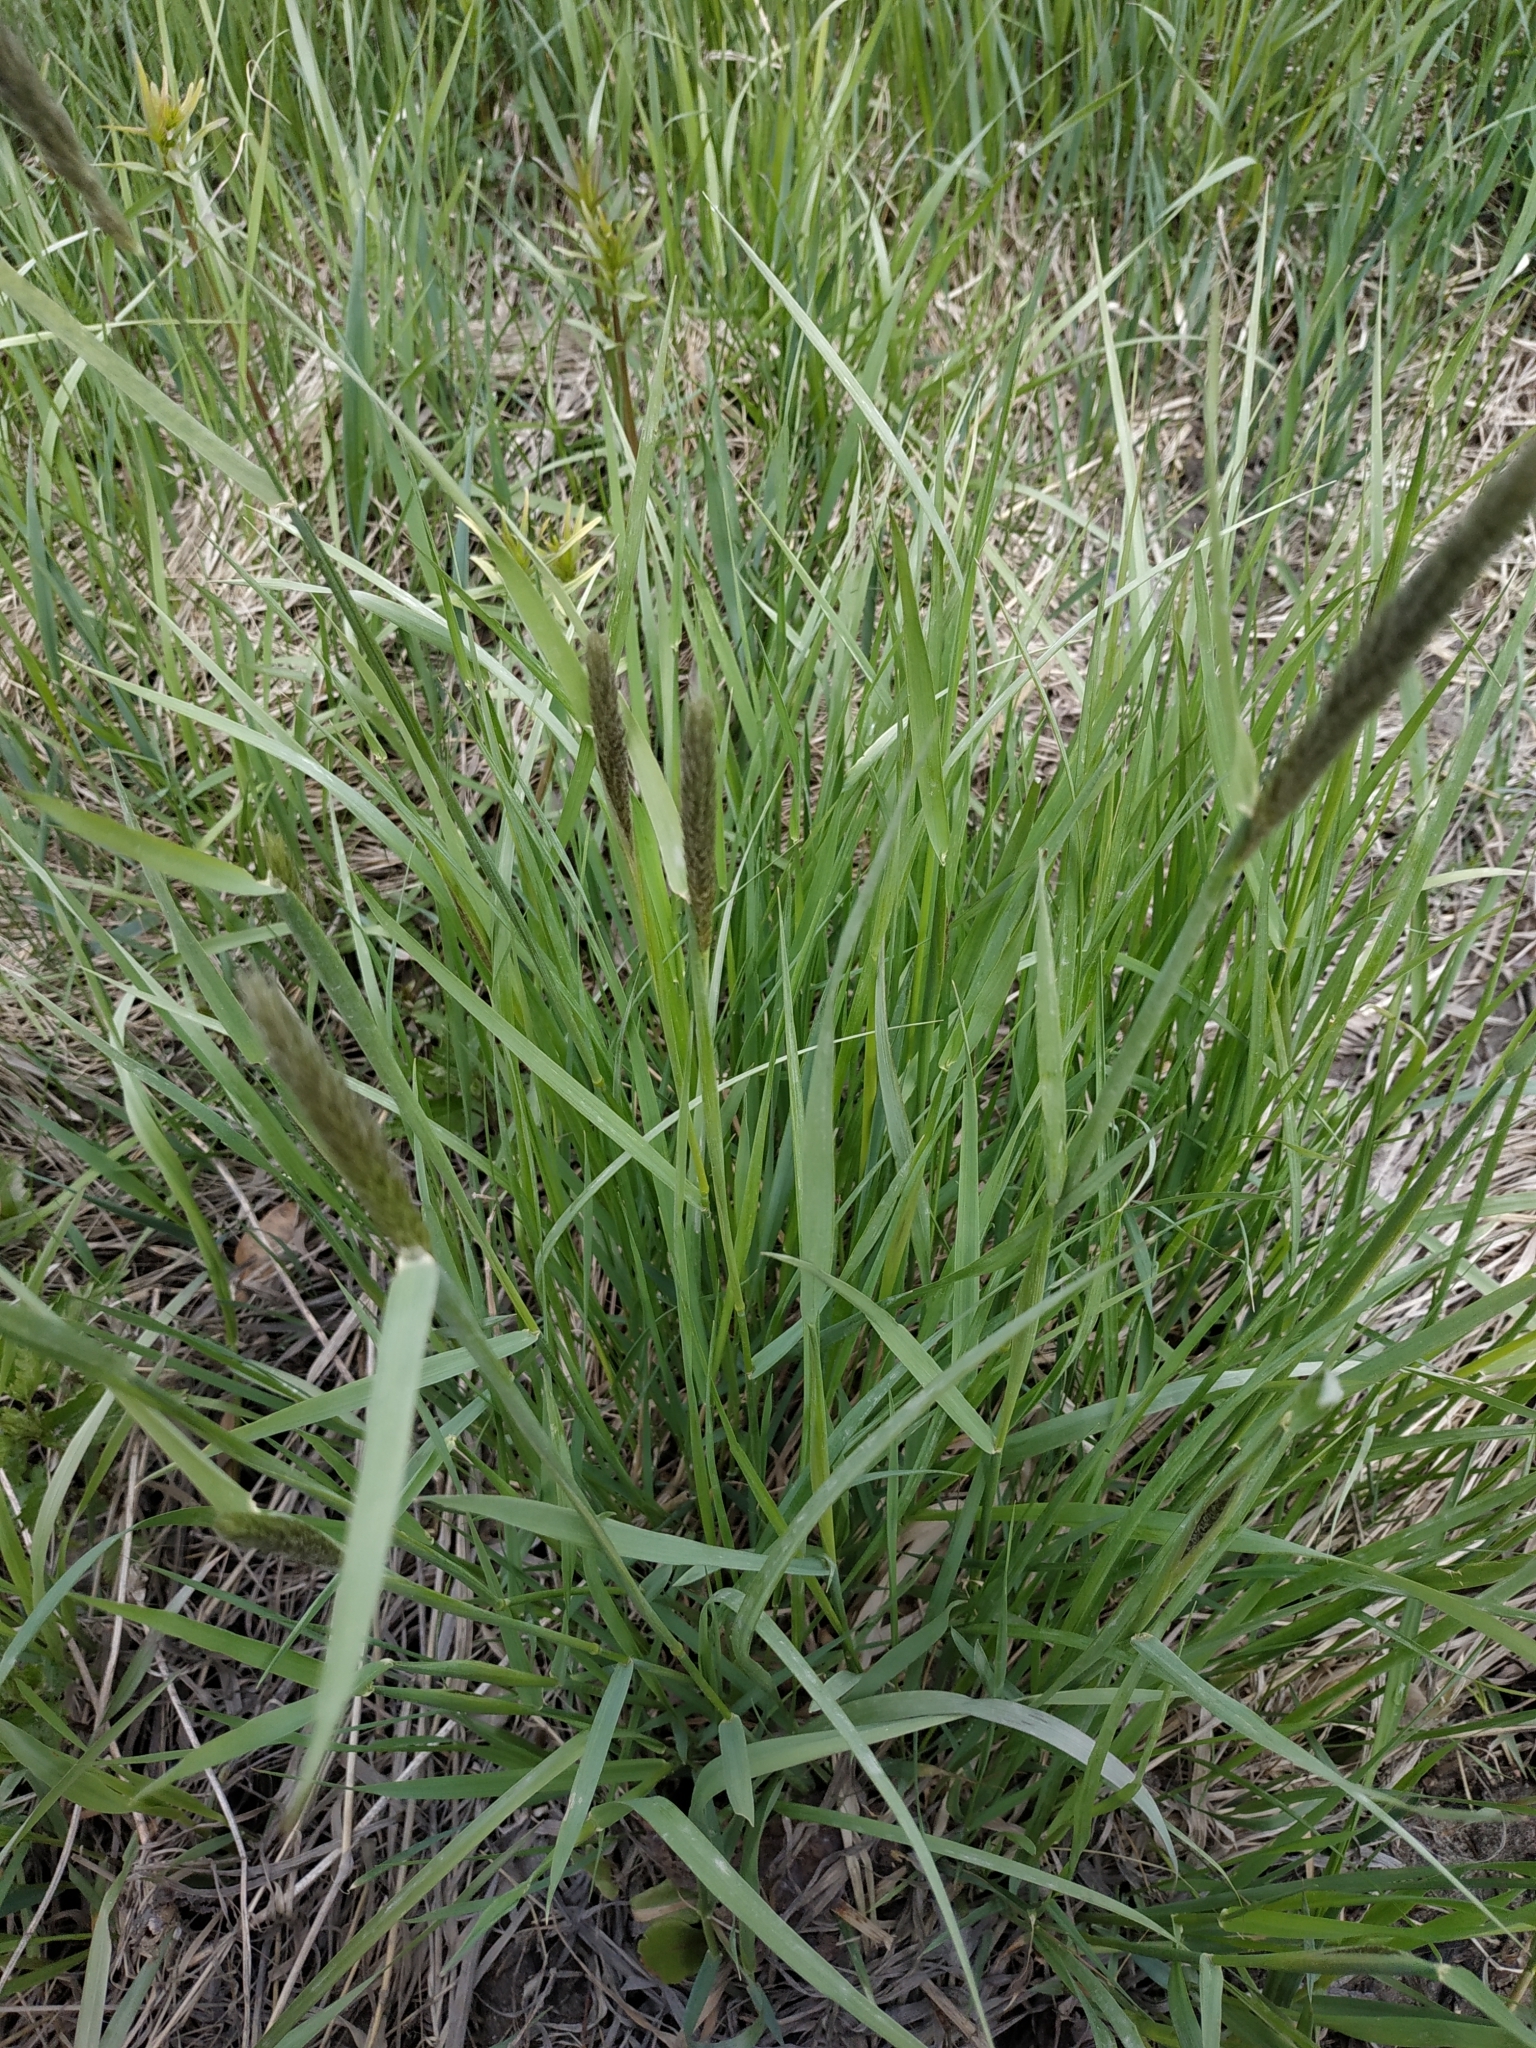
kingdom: Plantae
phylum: Tracheophyta
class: Liliopsida
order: Poales
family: Poaceae
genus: Alopecurus
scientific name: Alopecurus pratensis
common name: Meadow foxtail
